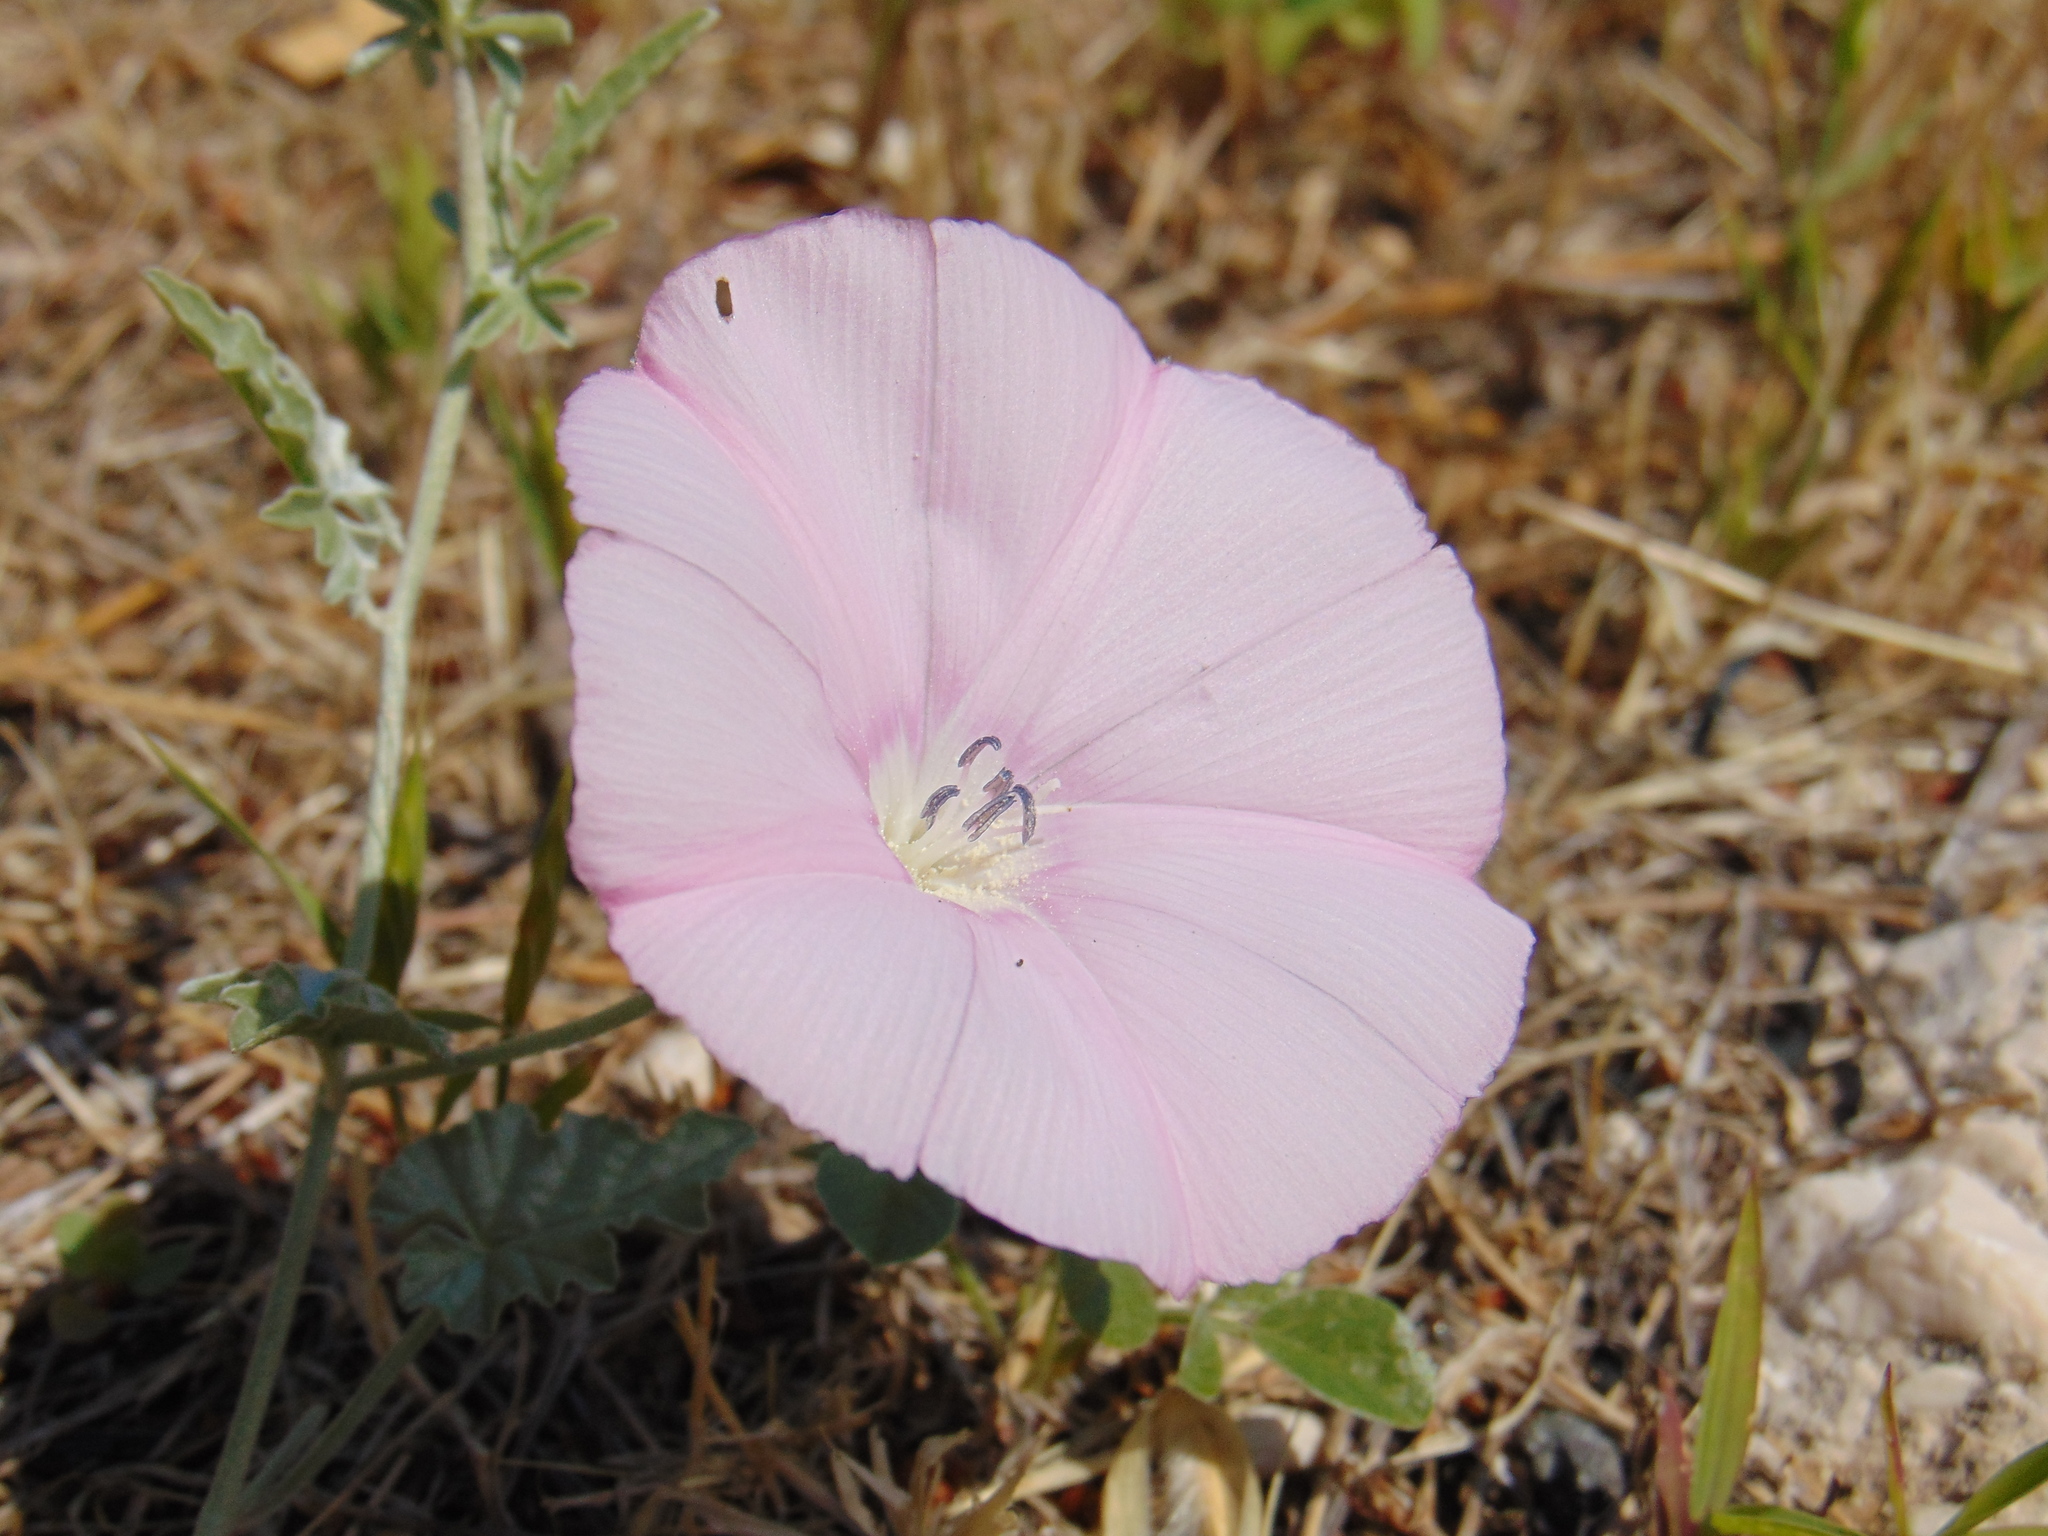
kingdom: Plantae
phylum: Tracheophyta
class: Magnoliopsida
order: Solanales
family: Convolvulaceae
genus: Convolvulus
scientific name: Convolvulus elegantissimus
